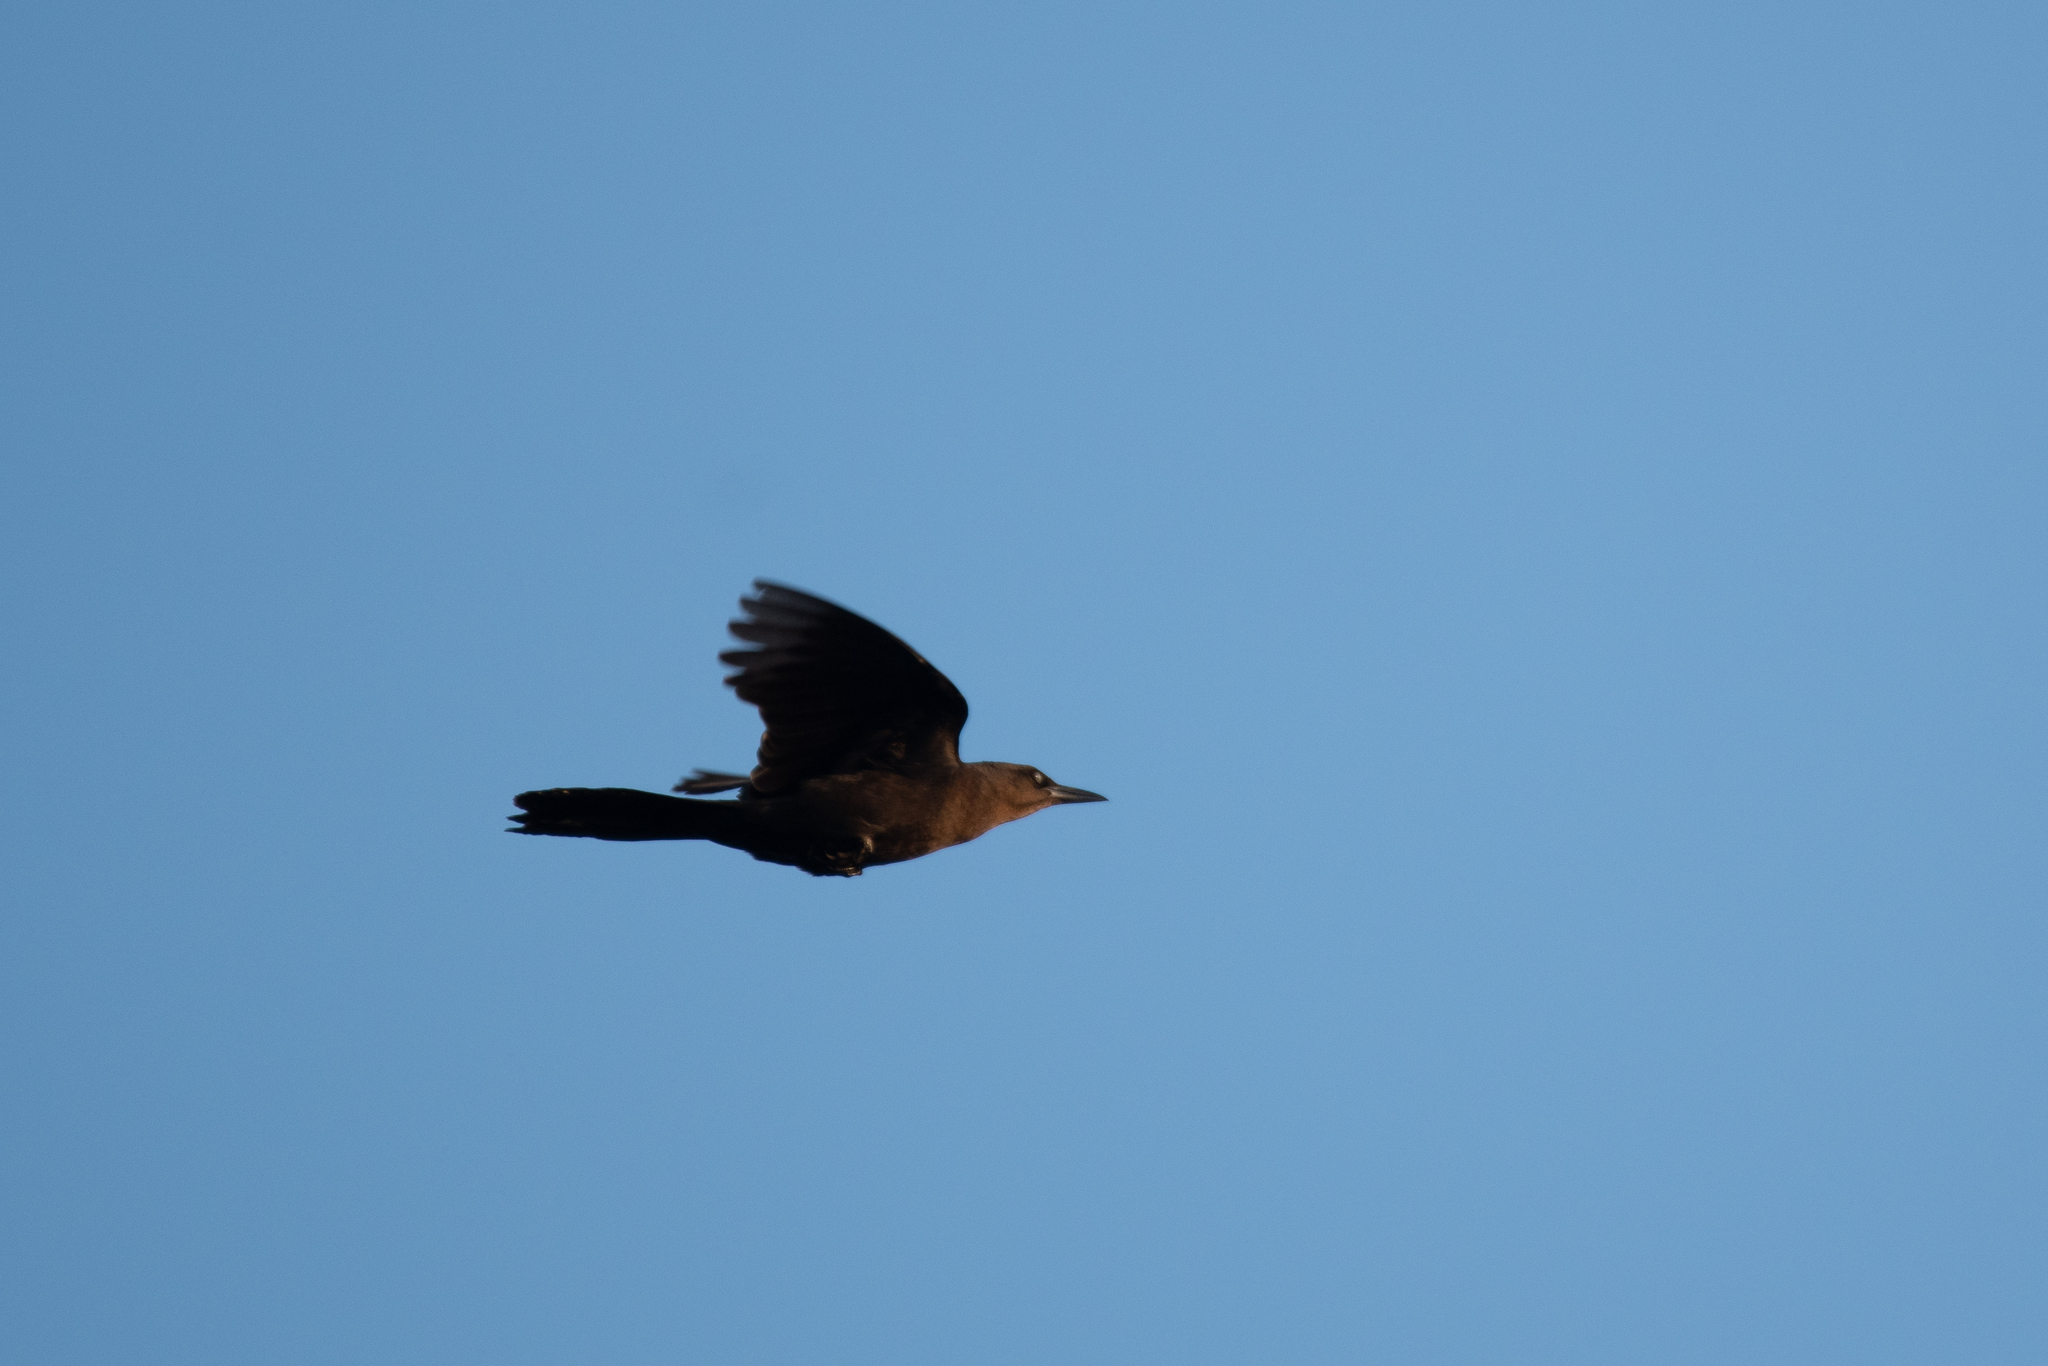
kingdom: Animalia
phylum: Chordata
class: Aves
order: Passeriformes
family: Icteridae
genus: Quiscalus
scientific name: Quiscalus mexicanus
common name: Great-tailed grackle
